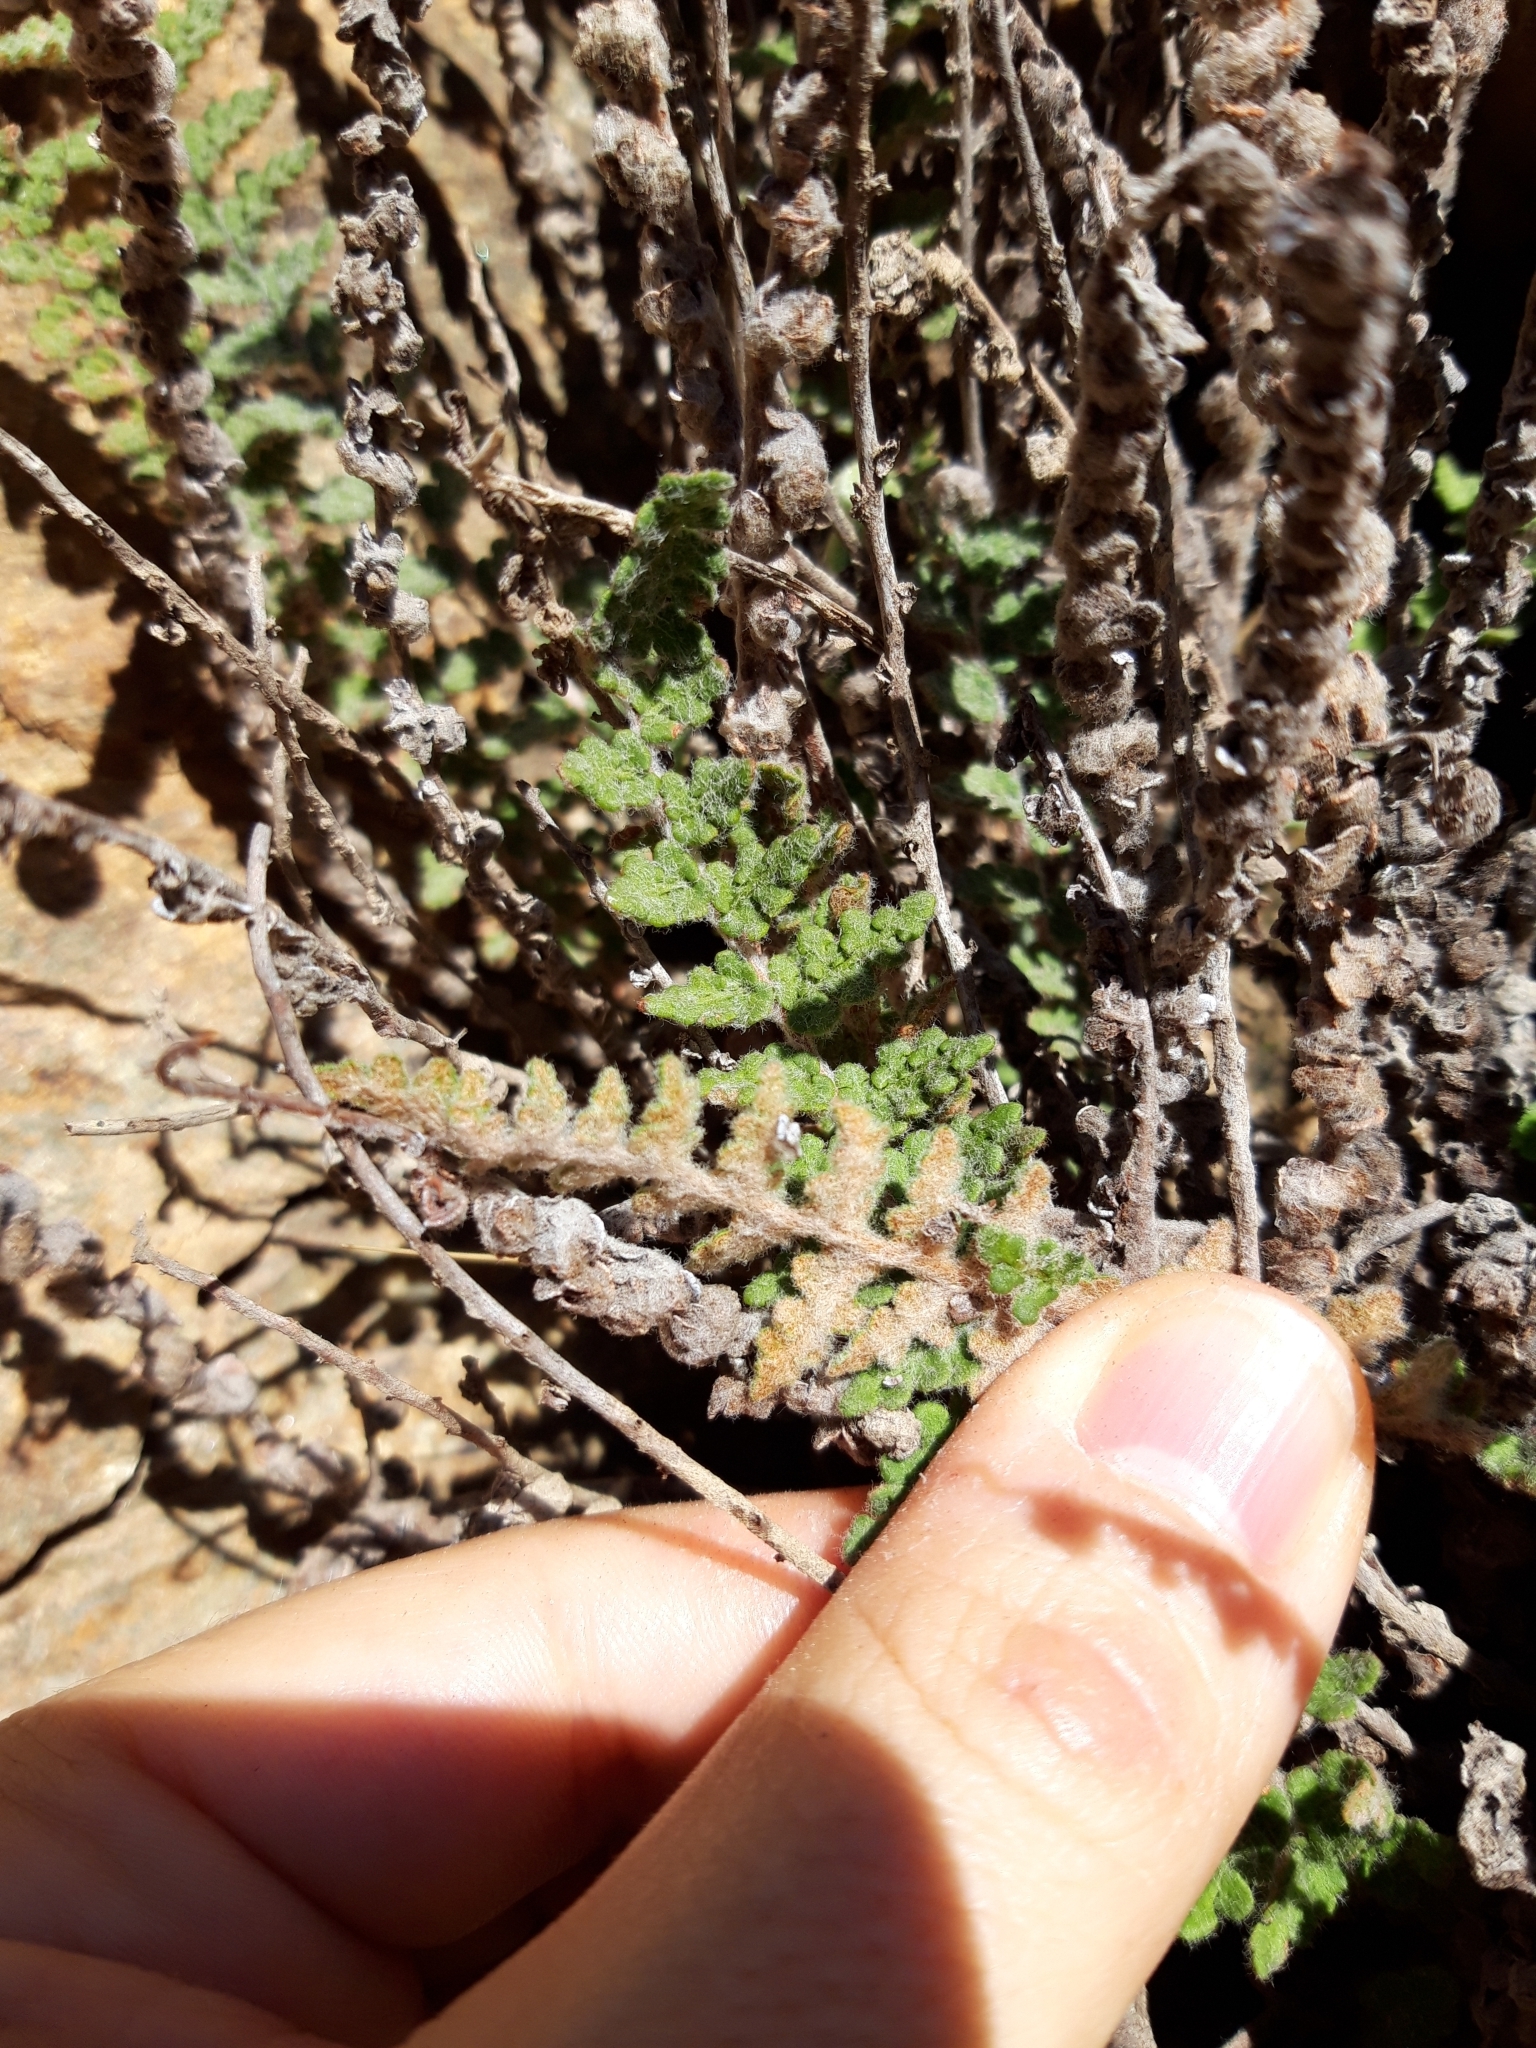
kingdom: Plantae
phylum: Tracheophyta
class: Polypodiopsida
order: Polypodiales
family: Pteridaceae
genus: Cosentinia
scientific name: Cosentinia vellea
